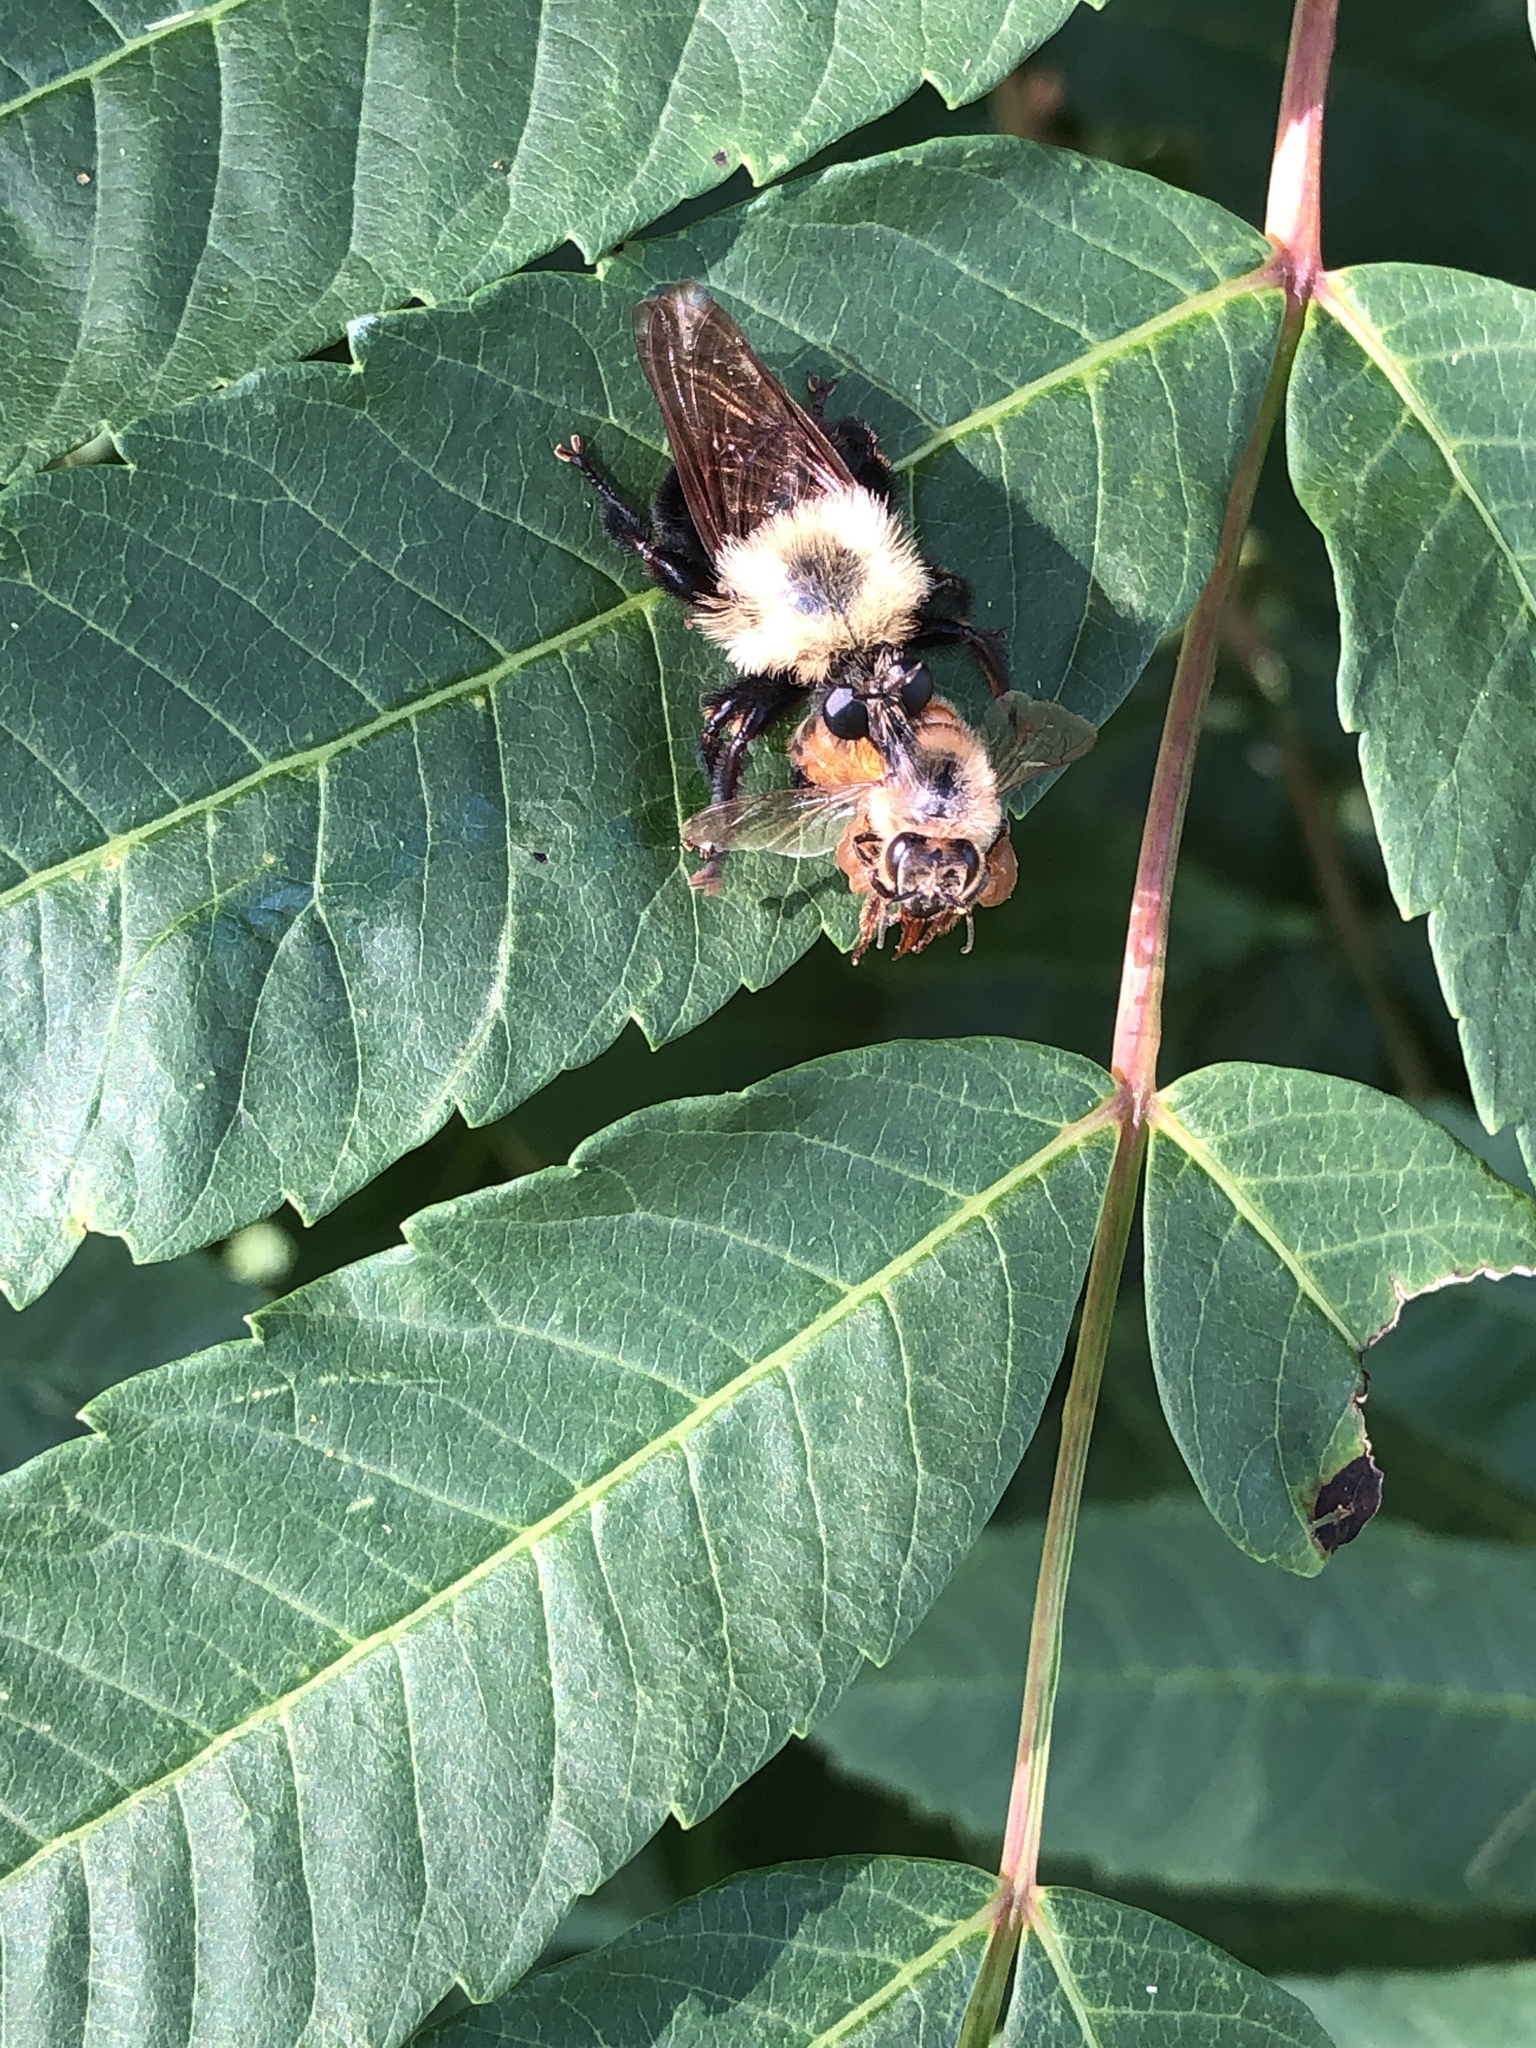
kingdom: Animalia
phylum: Arthropoda
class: Insecta
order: Diptera
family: Asilidae
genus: Laphria
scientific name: Laphria thoracica
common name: Bumble bee mimic robber fly
